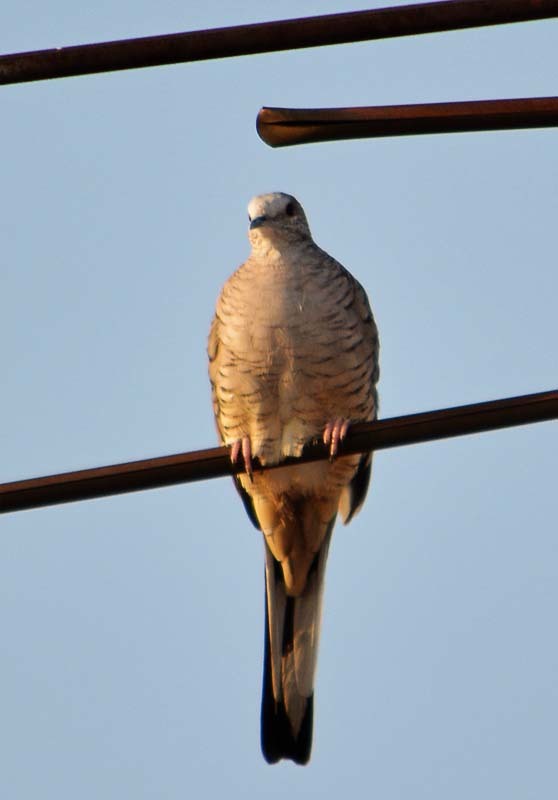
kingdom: Animalia
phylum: Chordata
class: Aves
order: Columbiformes
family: Columbidae
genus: Columbina
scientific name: Columbina inca
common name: Inca dove
